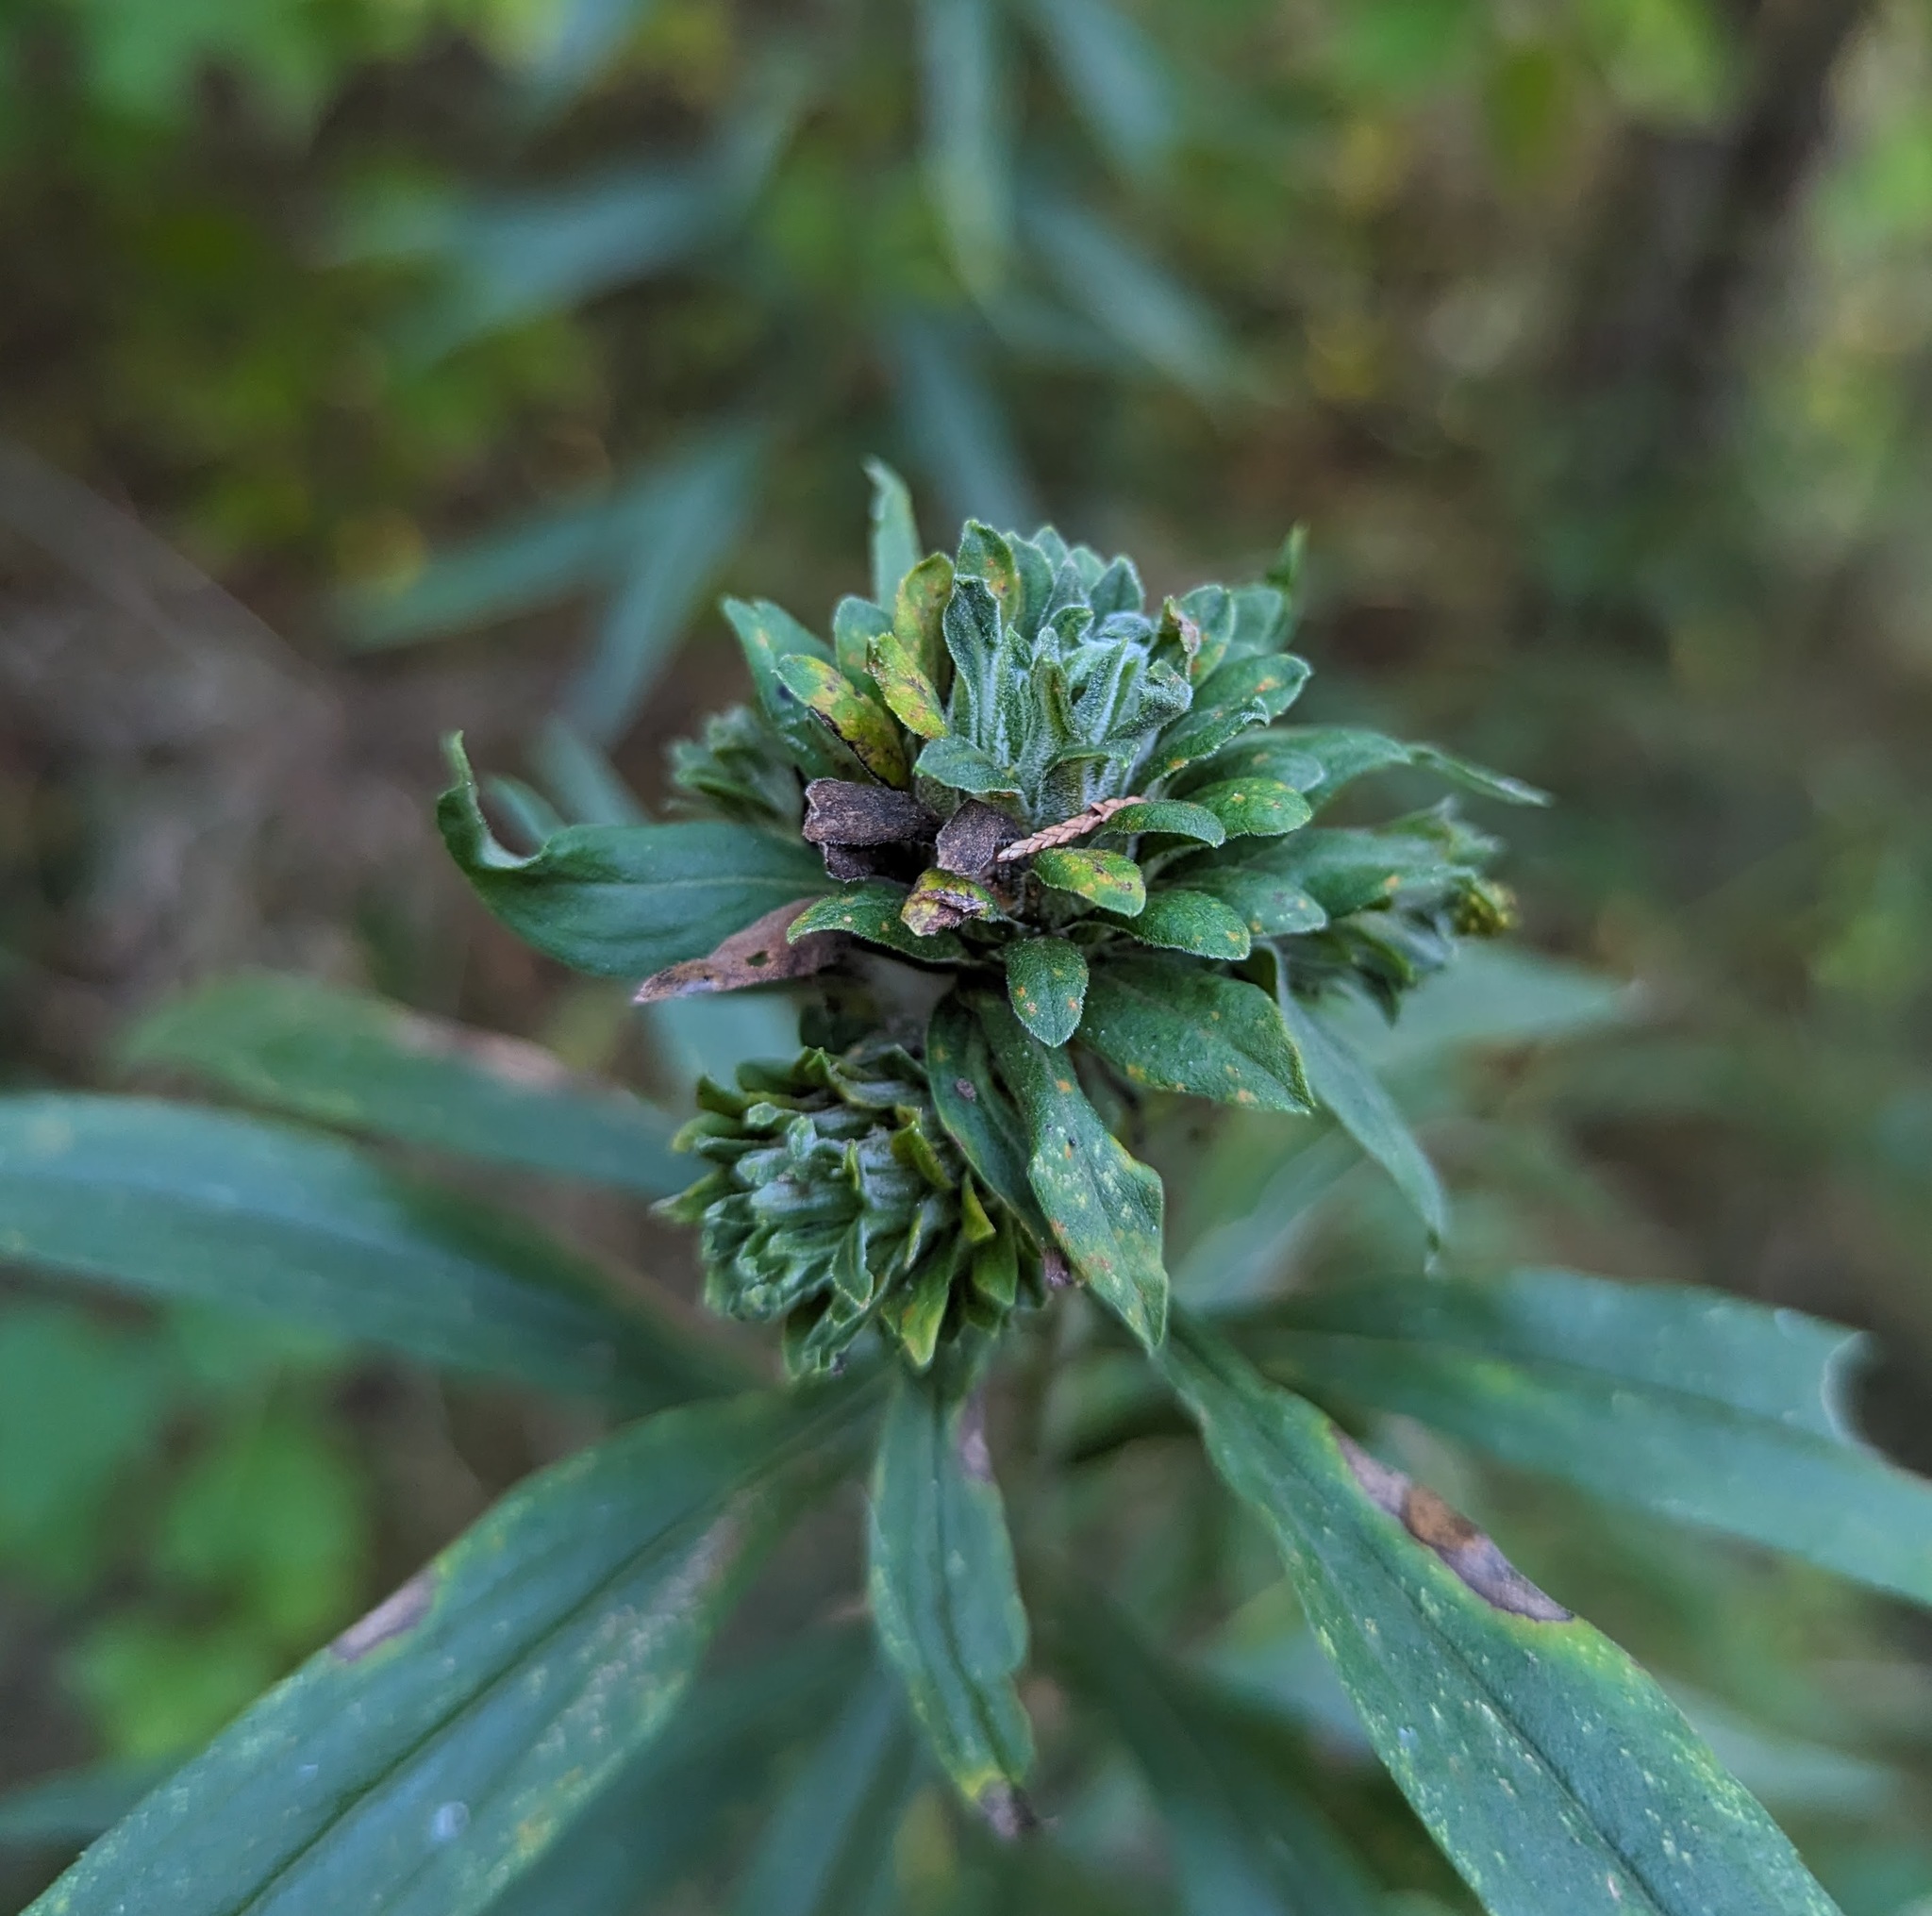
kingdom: Animalia
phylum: Arthropoda
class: Insecta
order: Diptera
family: Tephritidae
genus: Procecidochares
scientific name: Procecidochares atra
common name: Goldenrod brussels sprout gall fly
